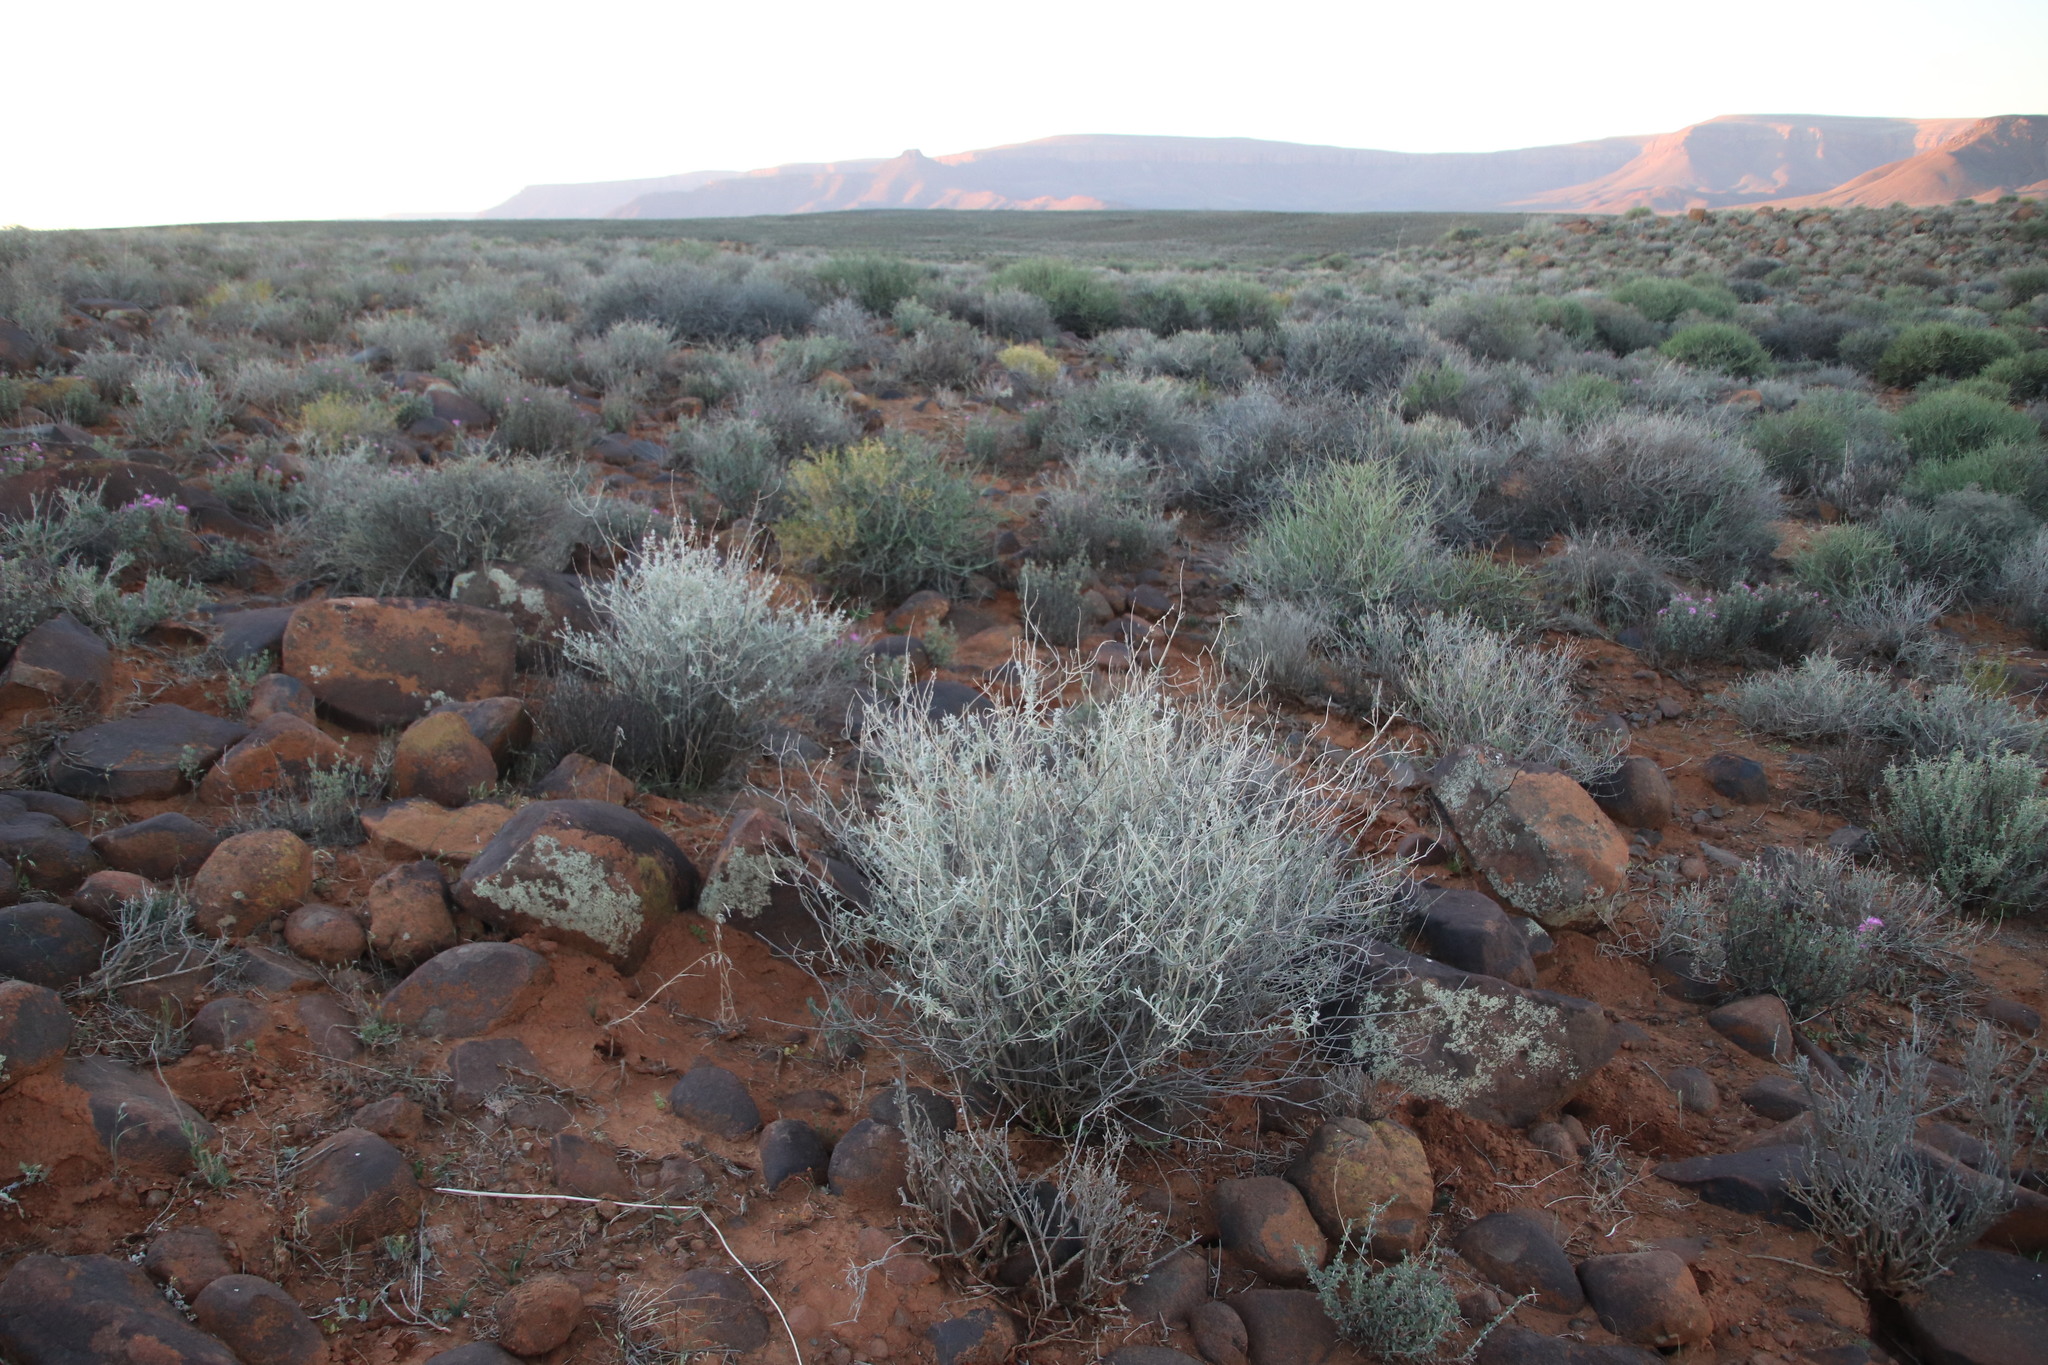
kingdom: Plantae
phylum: Tracheophyta
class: Magnoliopsida
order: Lamiales
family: Lamiaceae
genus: Stachys
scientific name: Stachys rugosa
